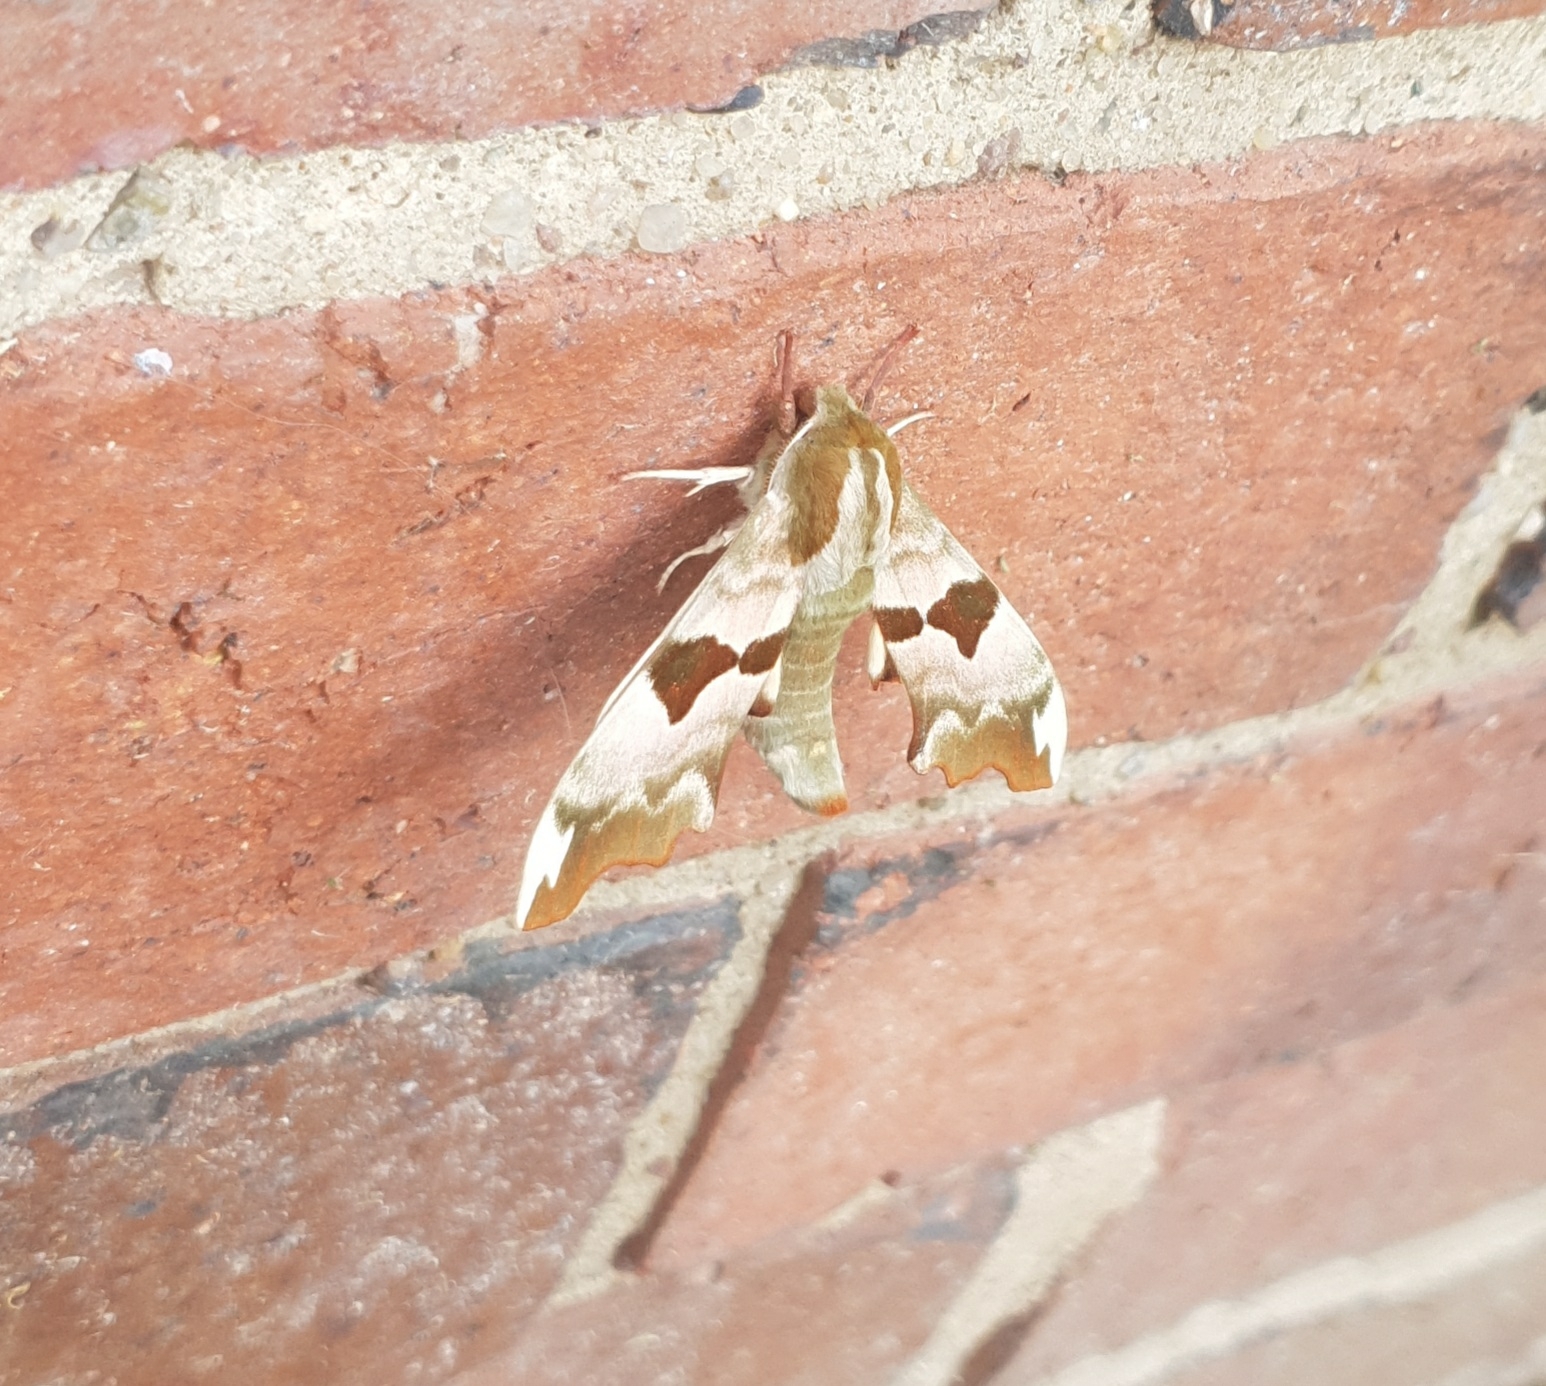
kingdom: Animalia
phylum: Arthropoda
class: Insecta
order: Lepidoptera
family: Sphingidae
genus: Mimas
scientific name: Mimas tiliae
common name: Lime hawk-moth
